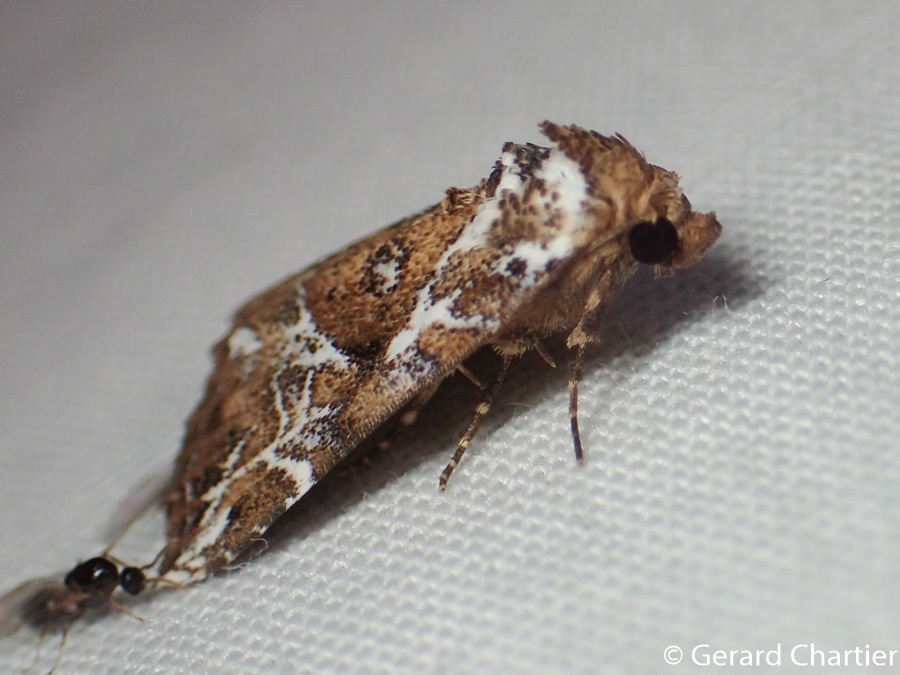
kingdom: Animalia
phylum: Arthropoda
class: Insecta
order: Lepidoptera
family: Erebidae
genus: Chorsia
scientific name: Chorsia albiscriptus
